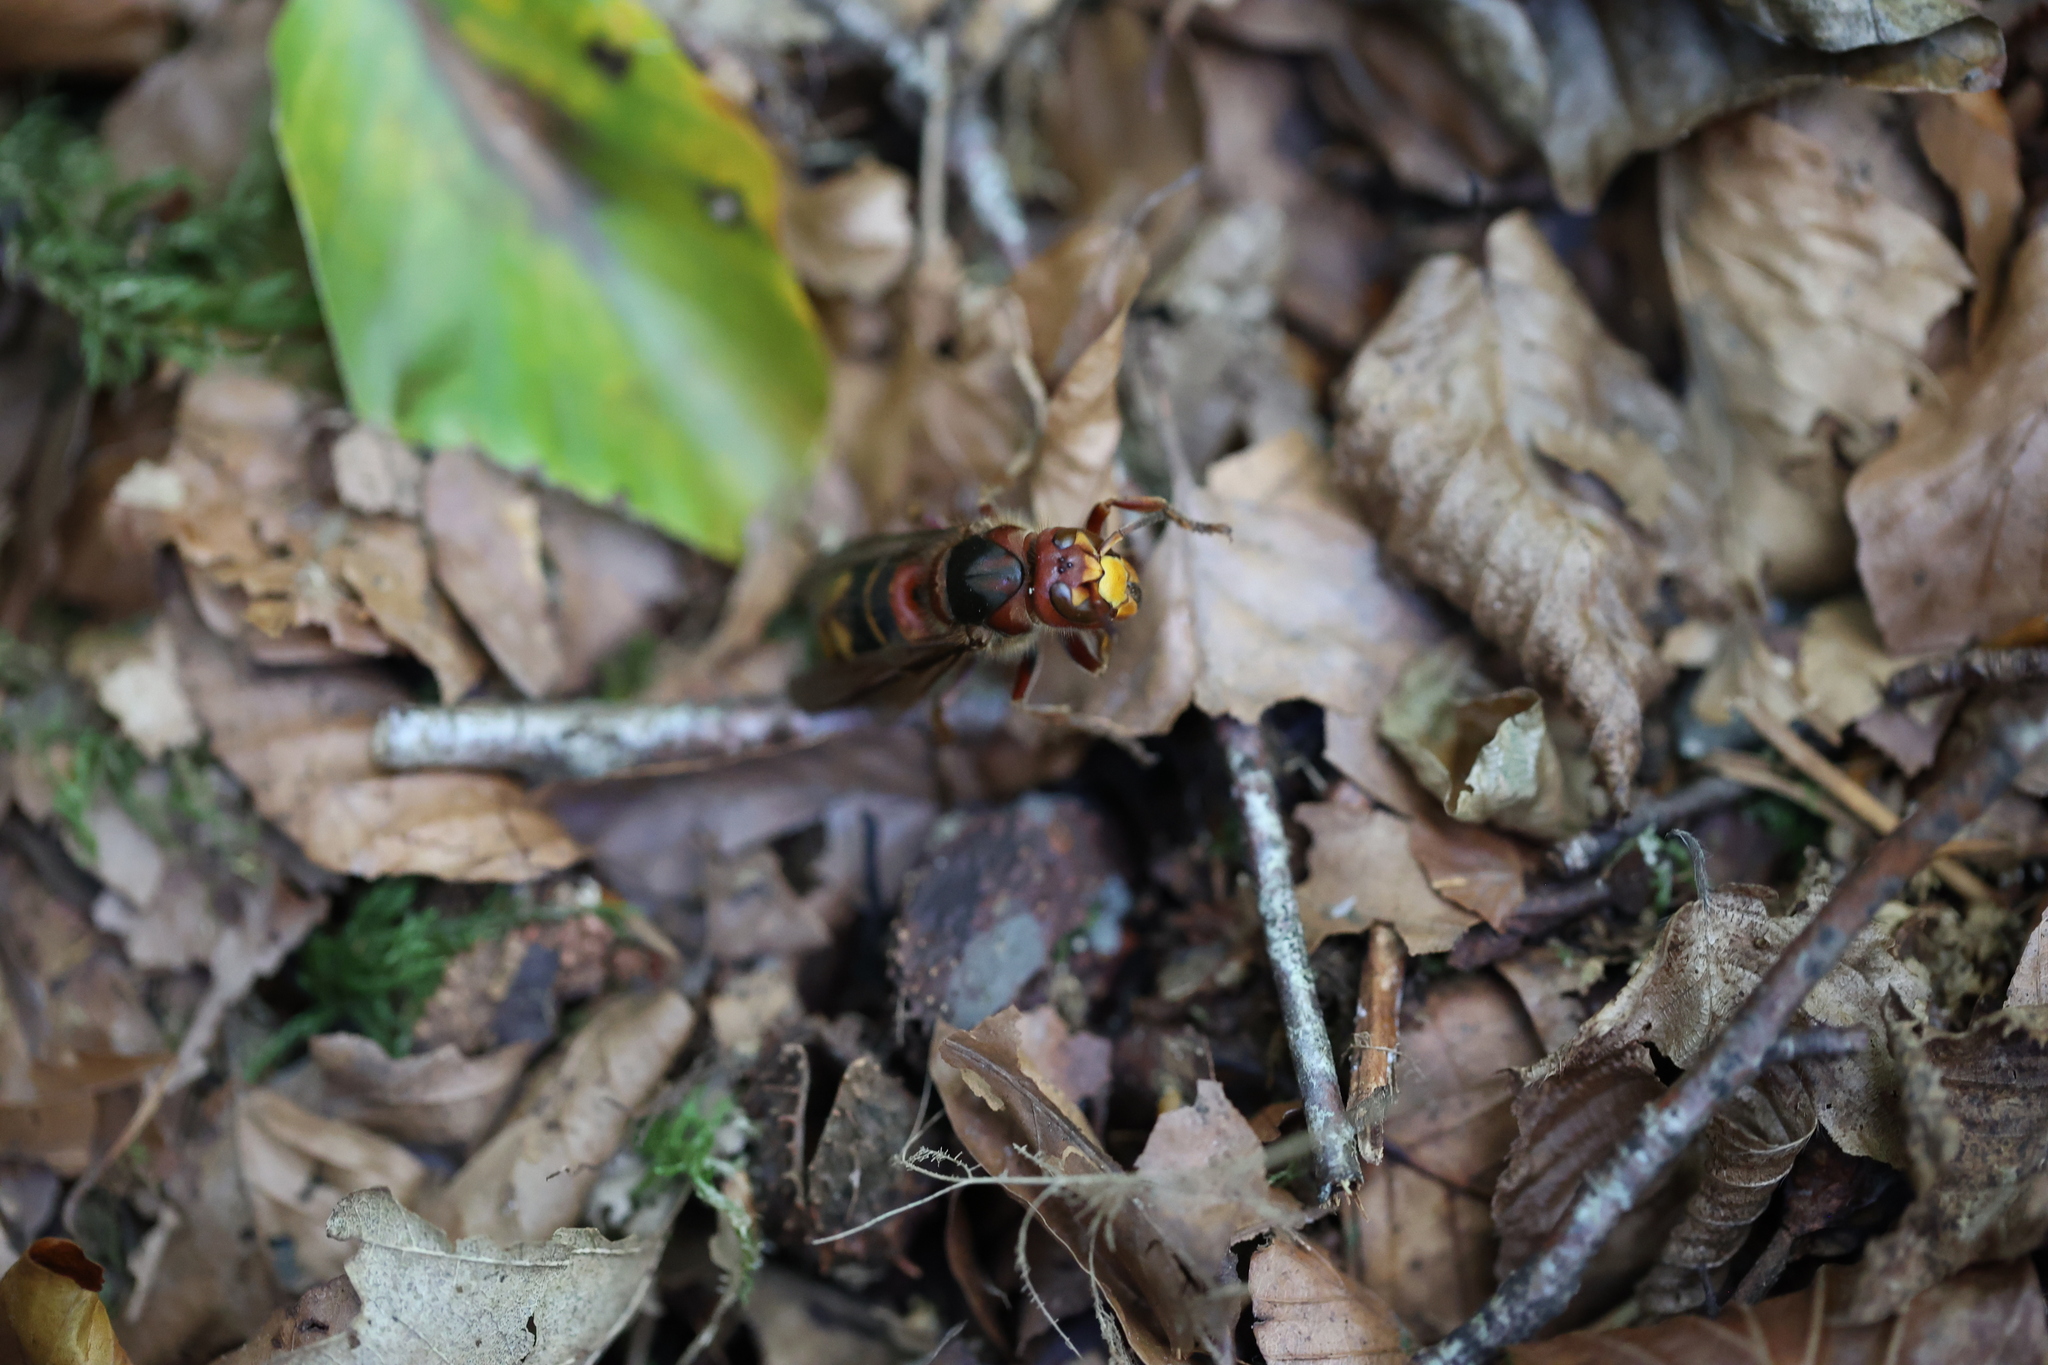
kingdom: Animalia
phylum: Arthropoda
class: Insecta
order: Hymenoptera
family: Vespidae
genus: Vespa
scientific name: Vespa crabro
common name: Hornet
